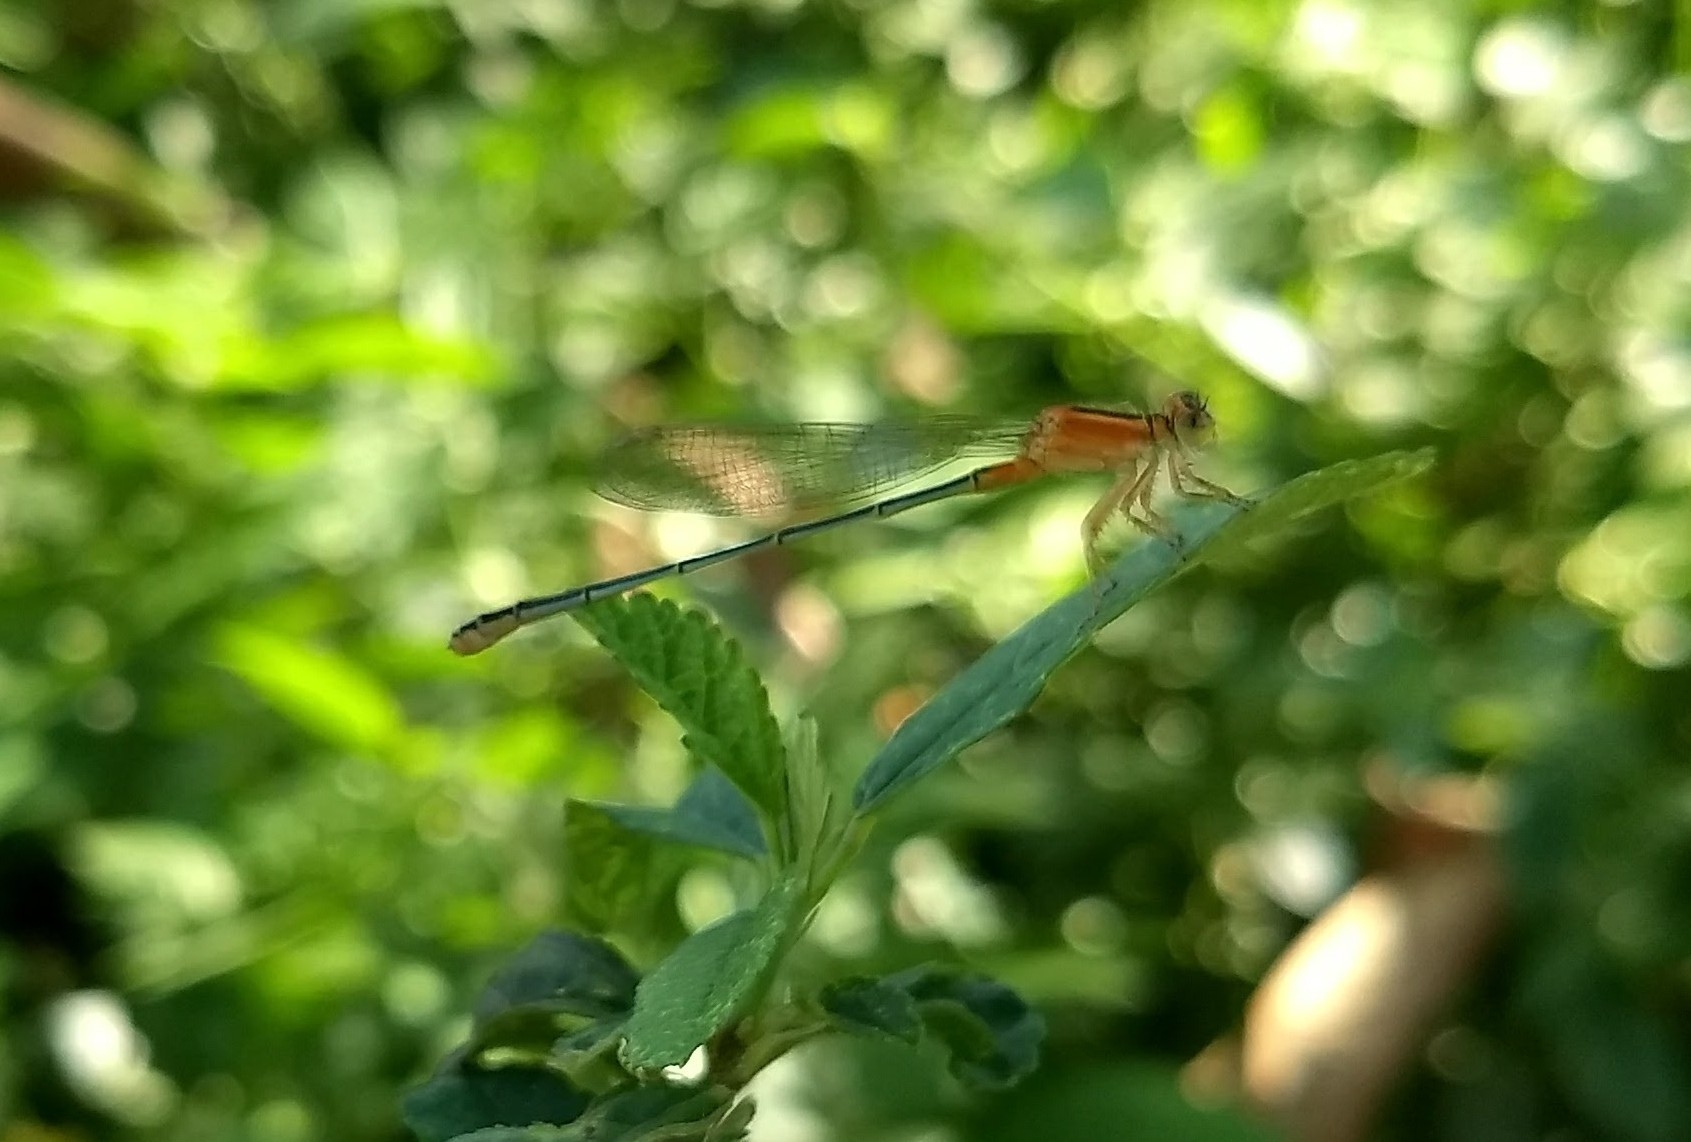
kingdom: Animalia
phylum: Arthropoda
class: Insecta
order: Odonata
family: Coenagrionidae
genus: Ischnura
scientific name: Ischnura senegalensis
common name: Tropical bluetail
